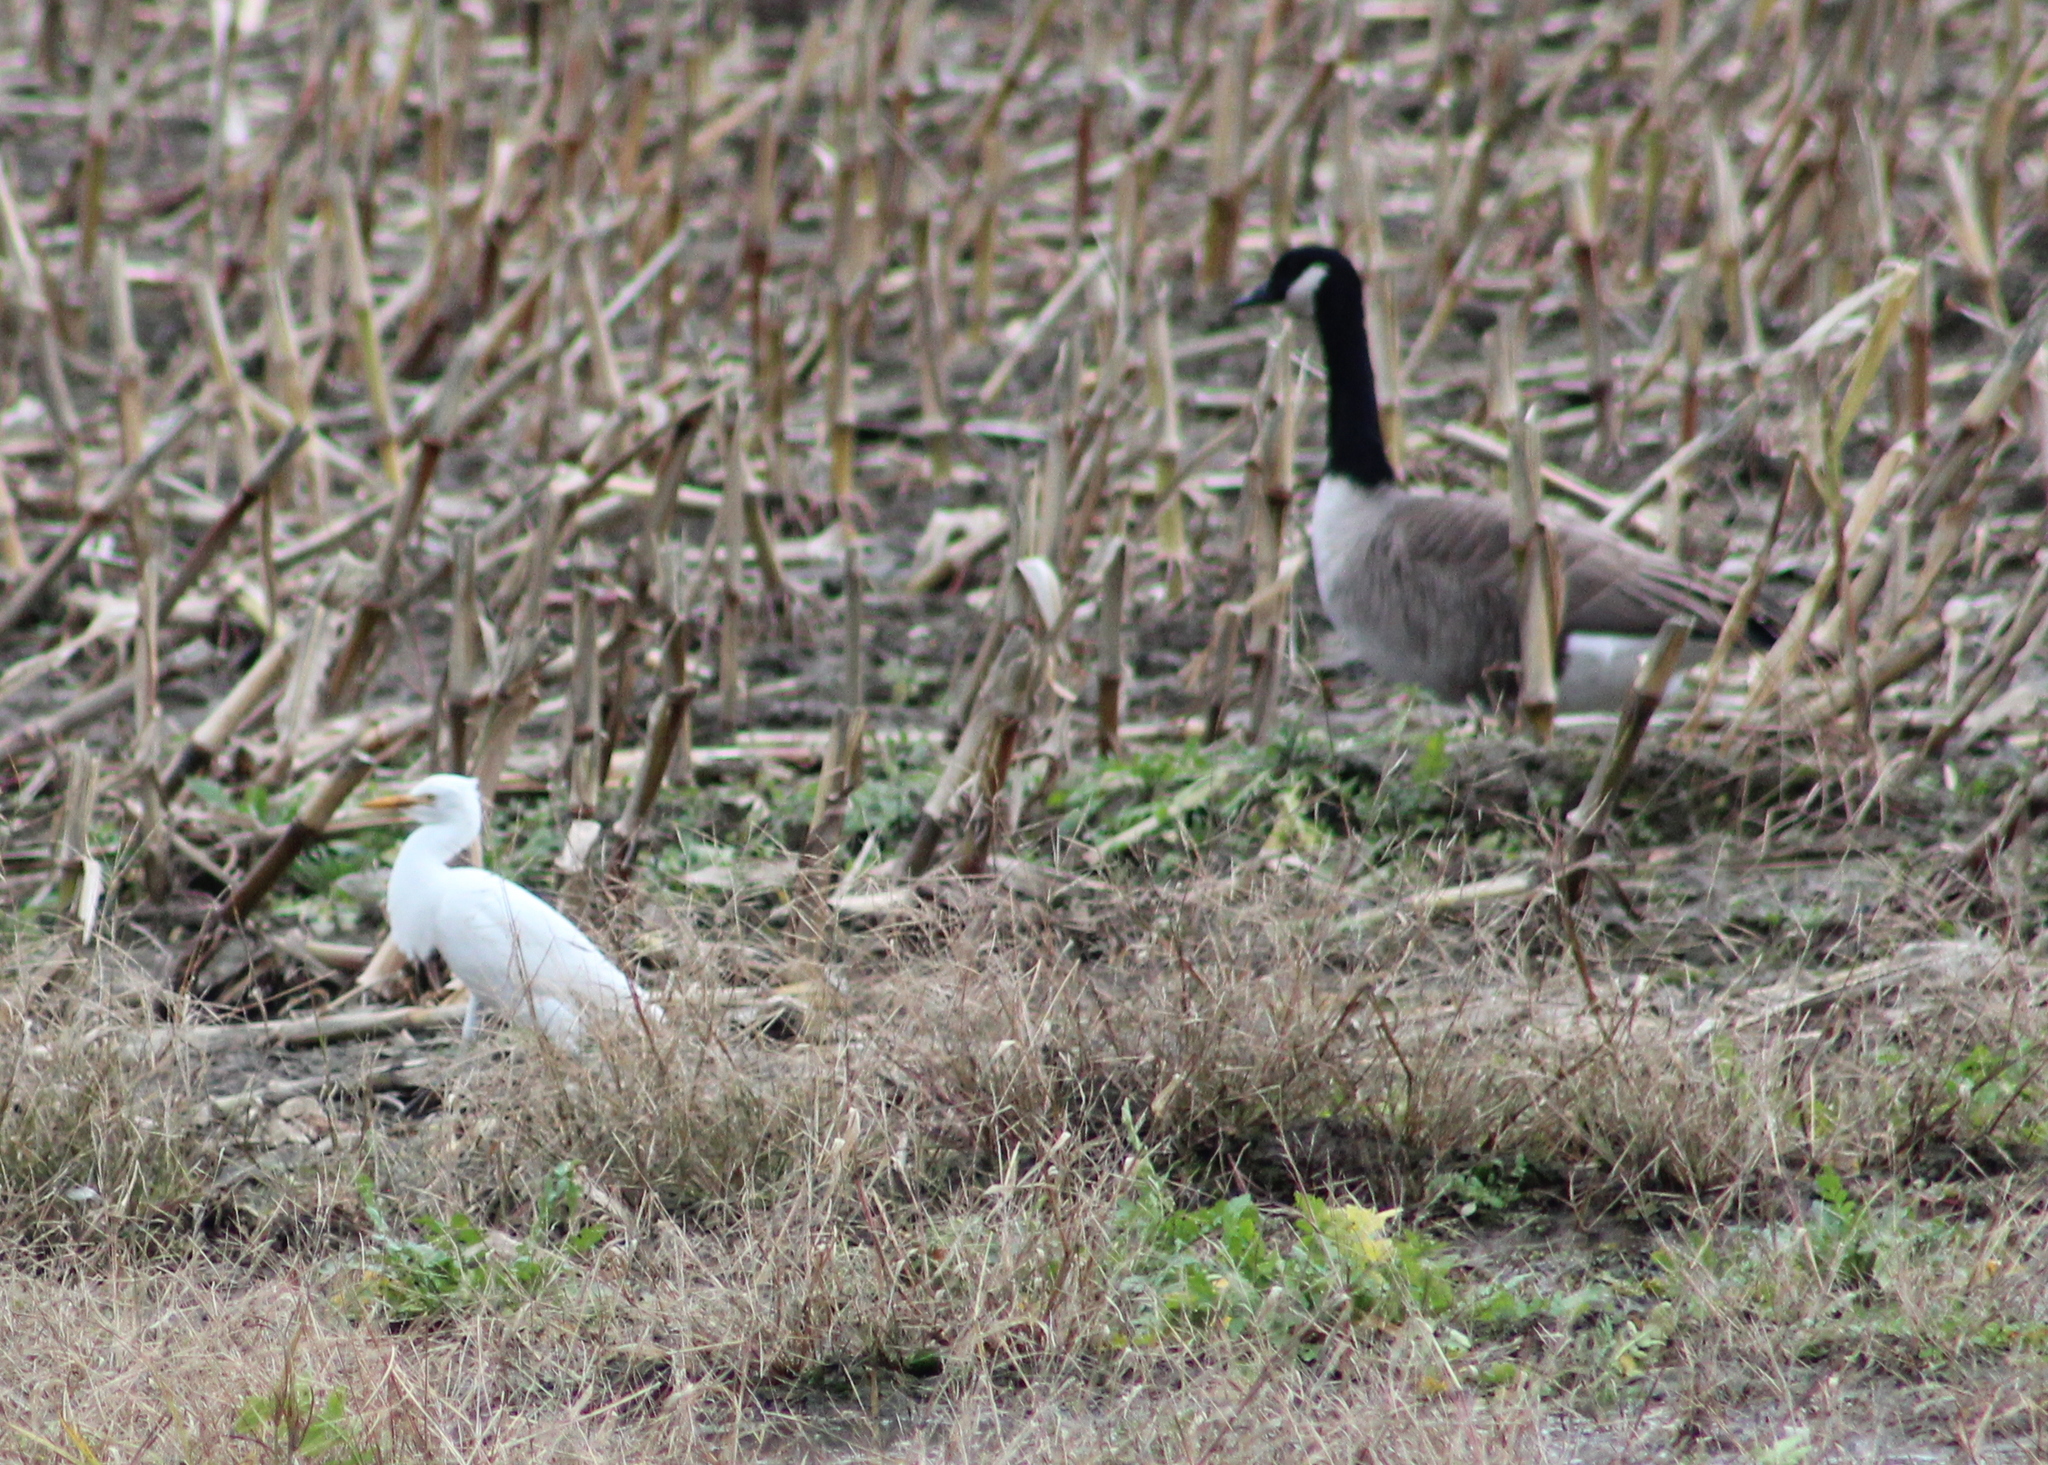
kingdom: Animalia
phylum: Chordata
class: Aves
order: Pelecaniformes
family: Ardeidae
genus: Bubulcus
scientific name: Bubulcus ibis
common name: Cattle egret
